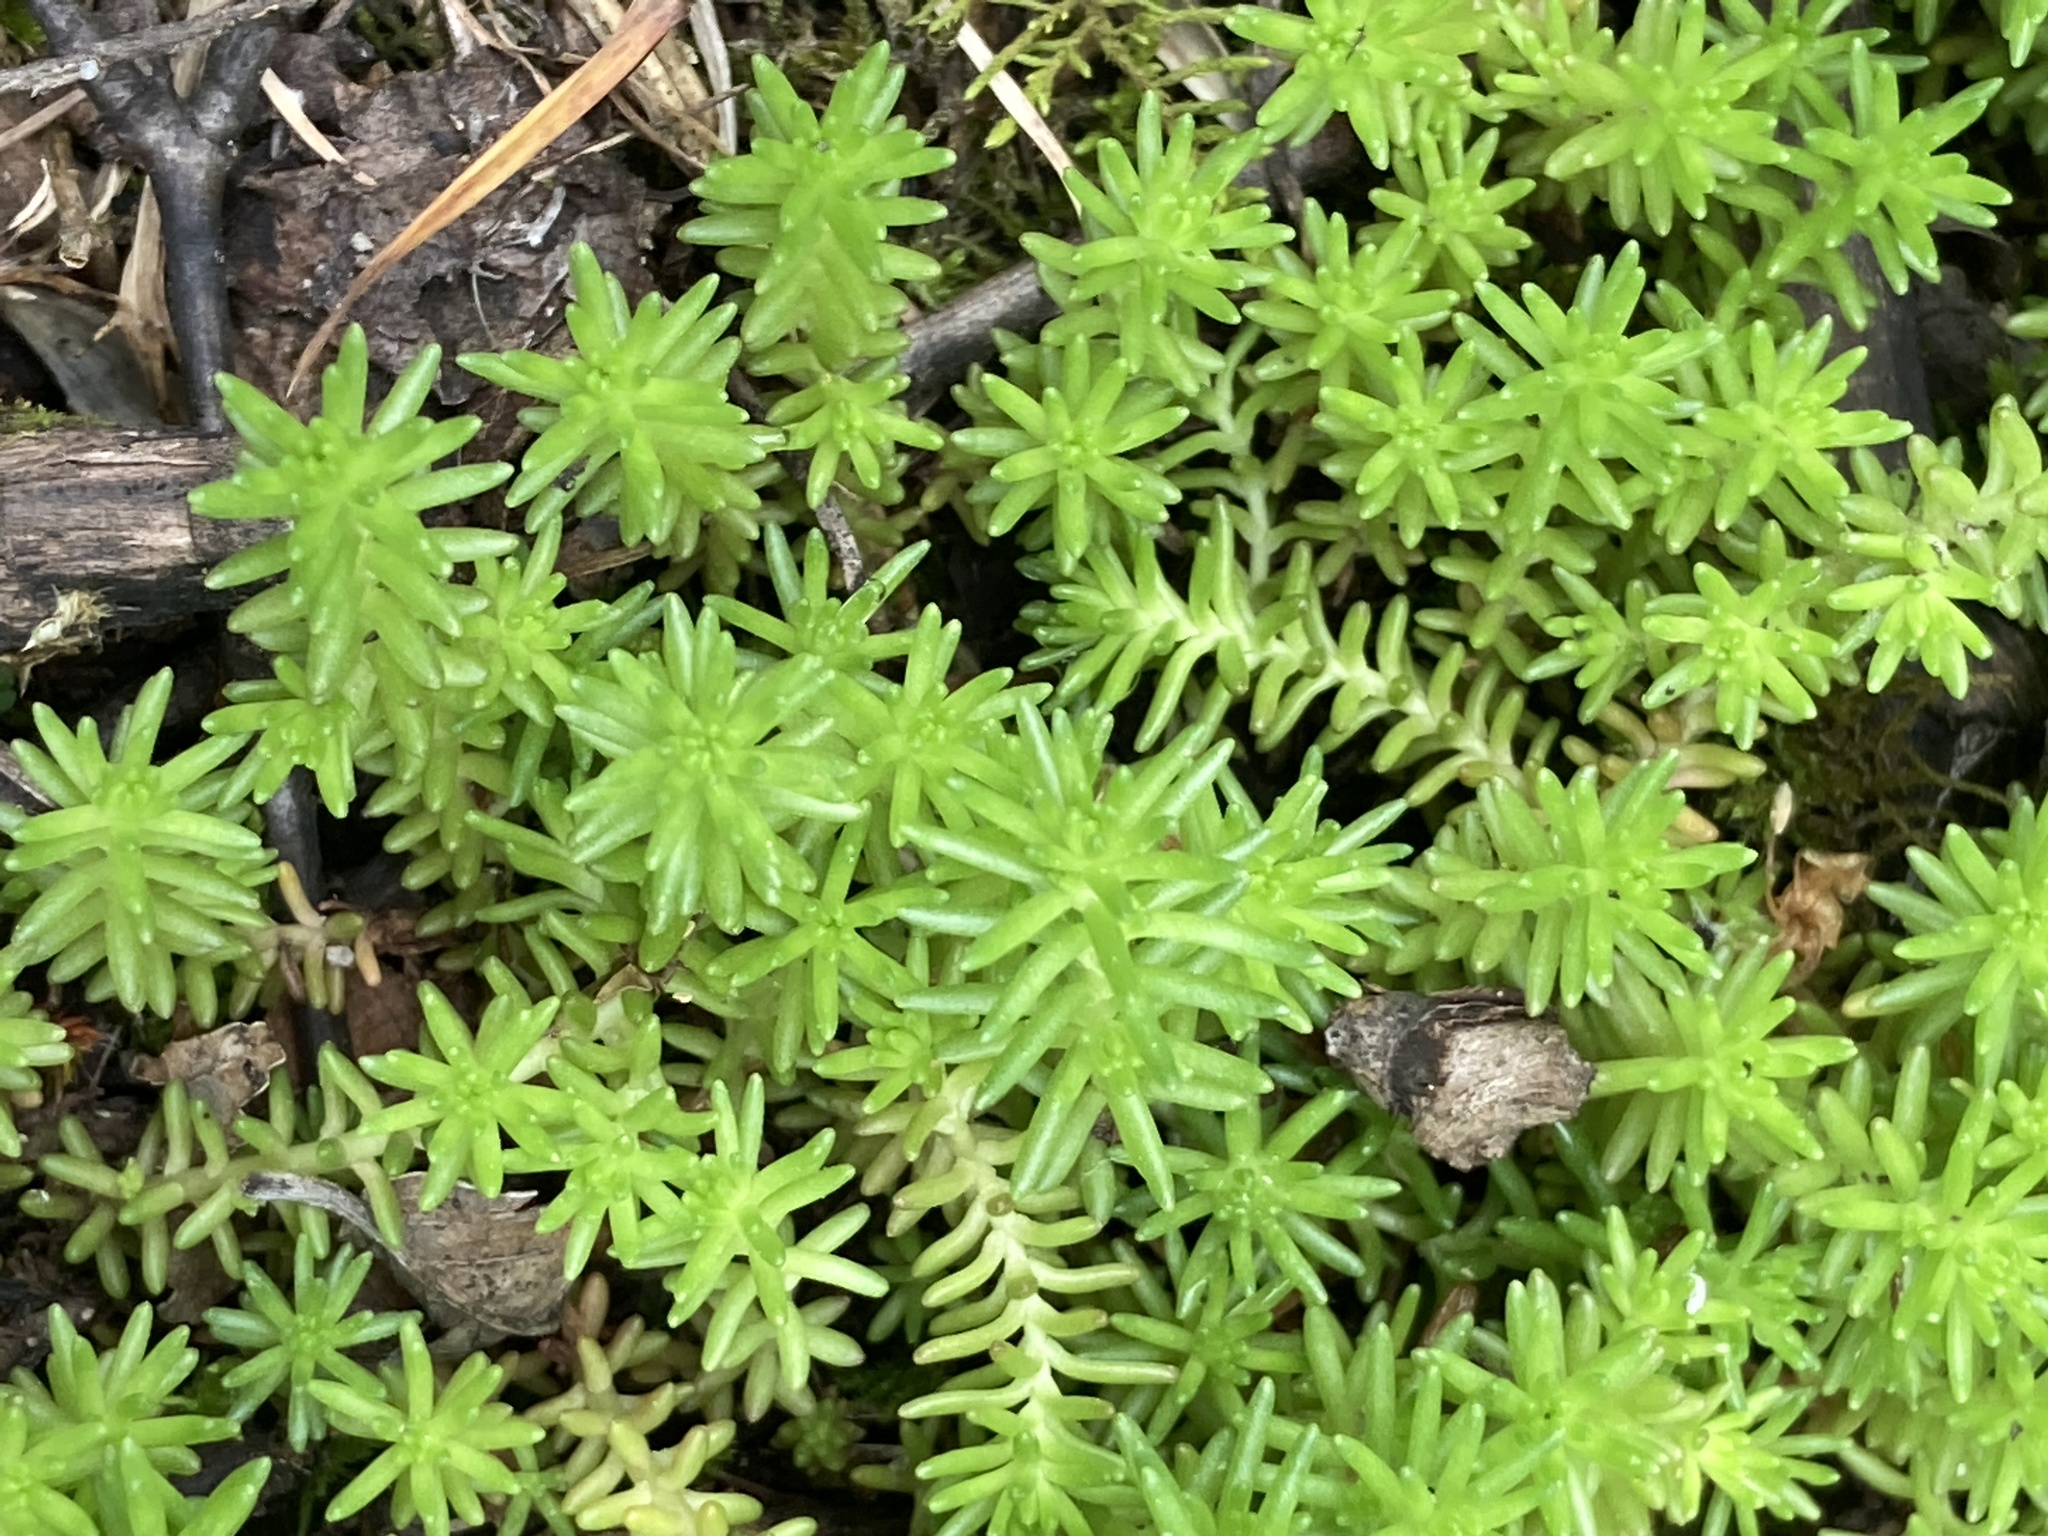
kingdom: Plantae
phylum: Tracheophyta
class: Magnoliopsida
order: Saxifragales
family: Crassulaceae
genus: Sedum
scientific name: Sedum sexangulare
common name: Tasteless stonecrop
